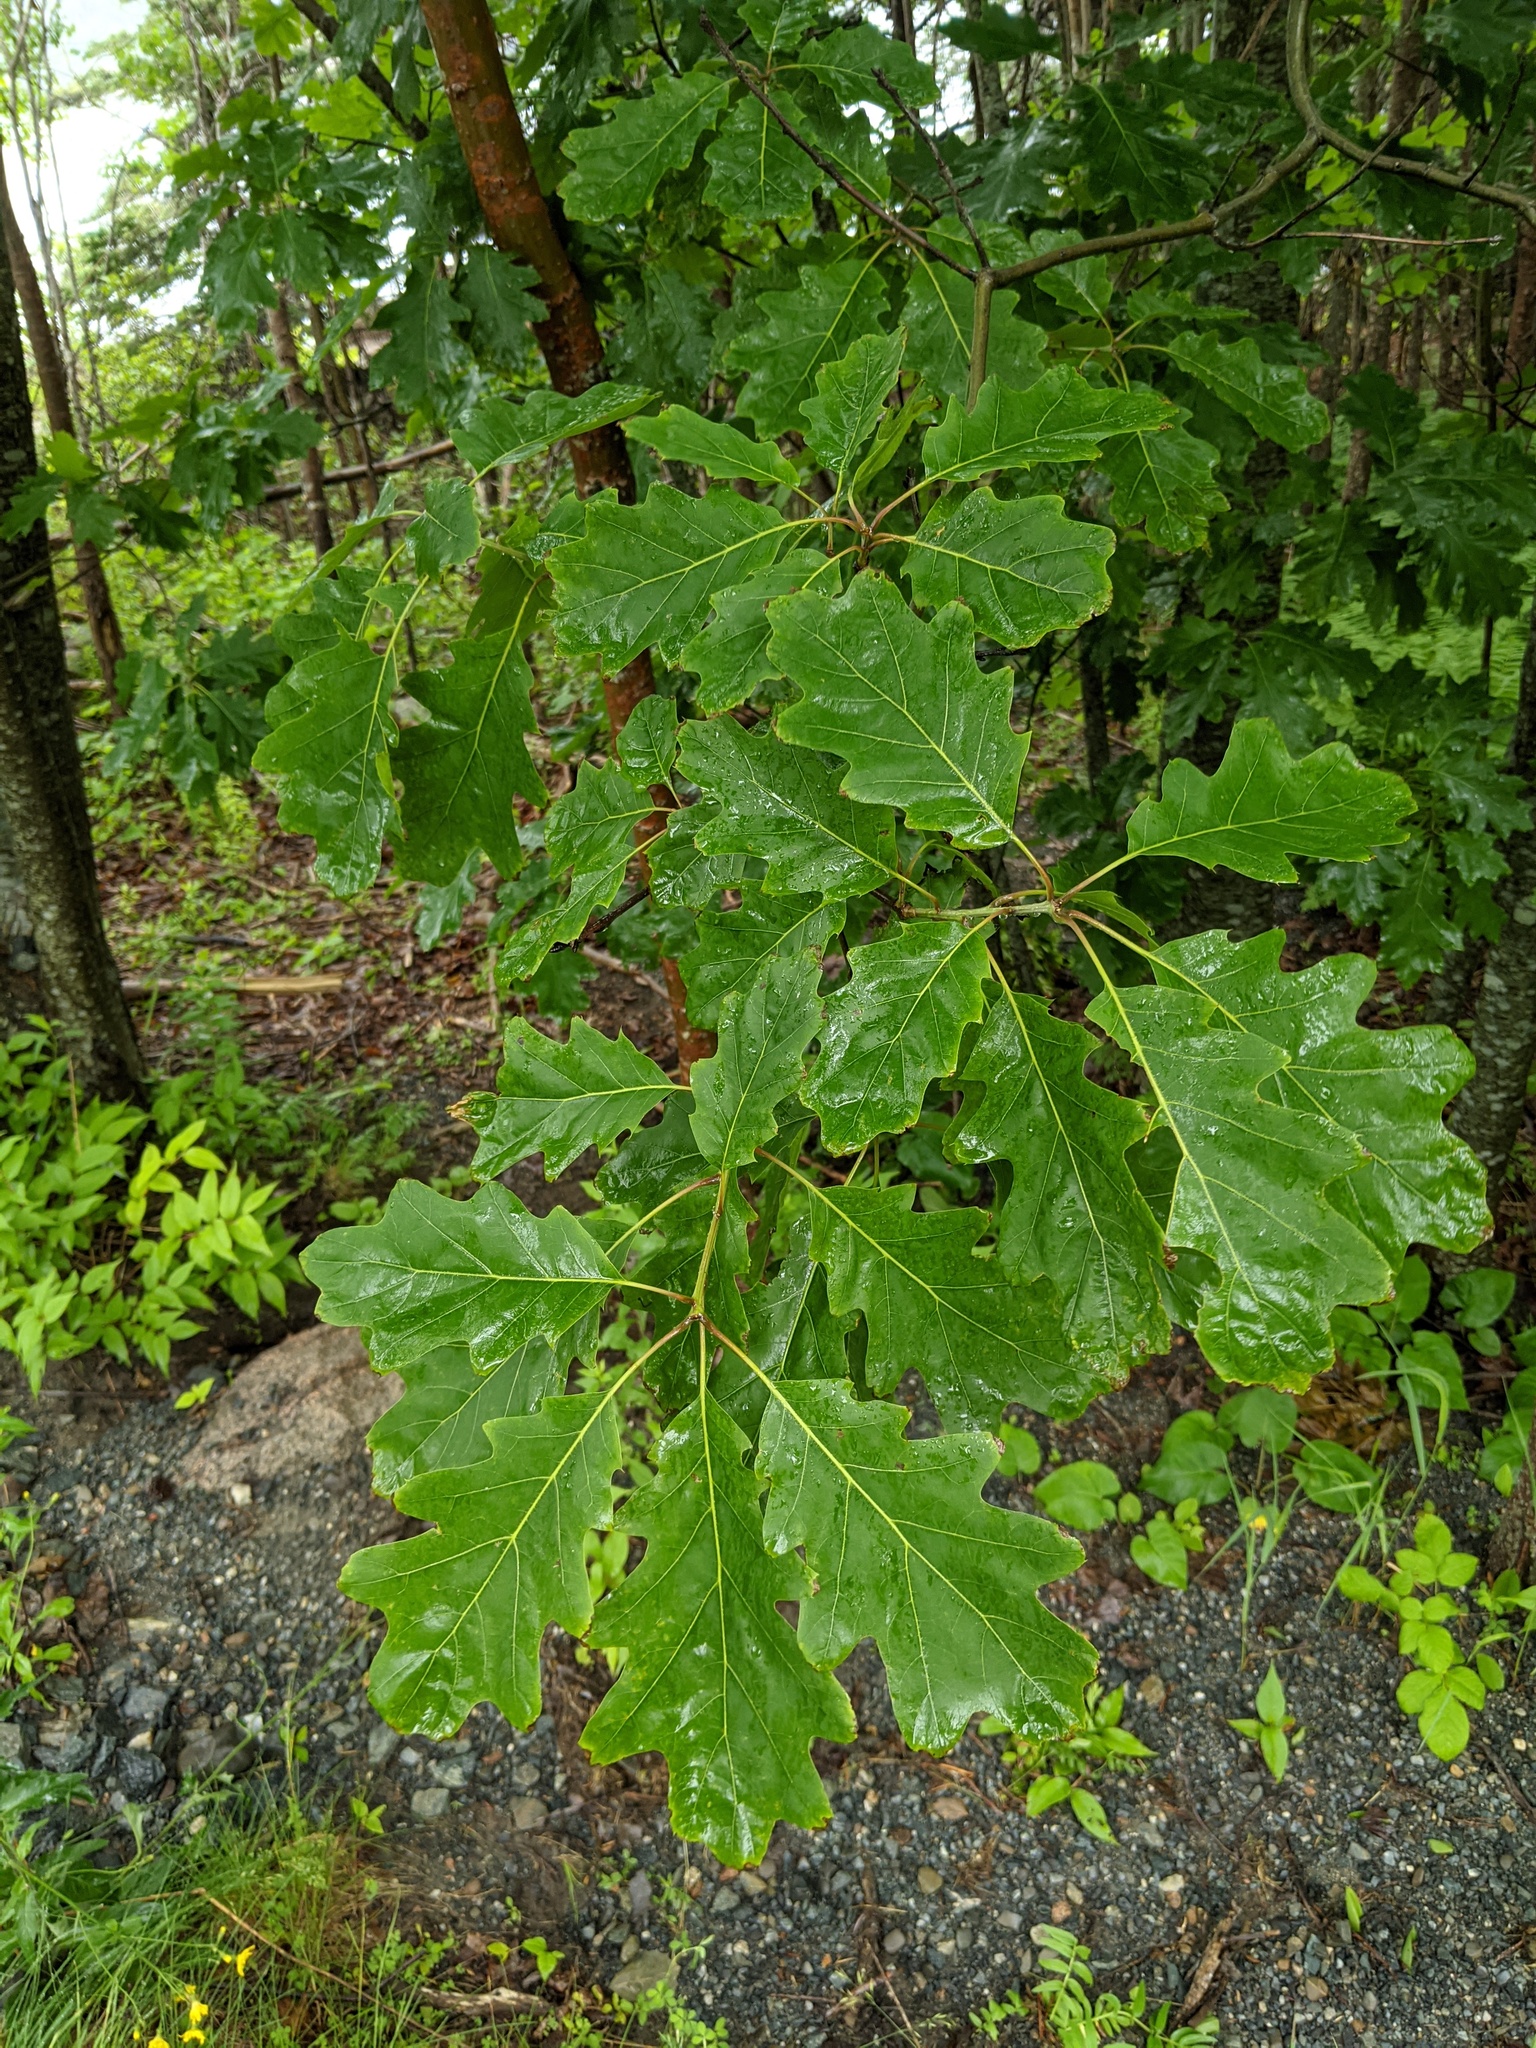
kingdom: Plantae
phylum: Tracheophyta
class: Magnoliopsida
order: Fagales
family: Fagaceae
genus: Quercus
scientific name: Quercus rubra
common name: Red oak
